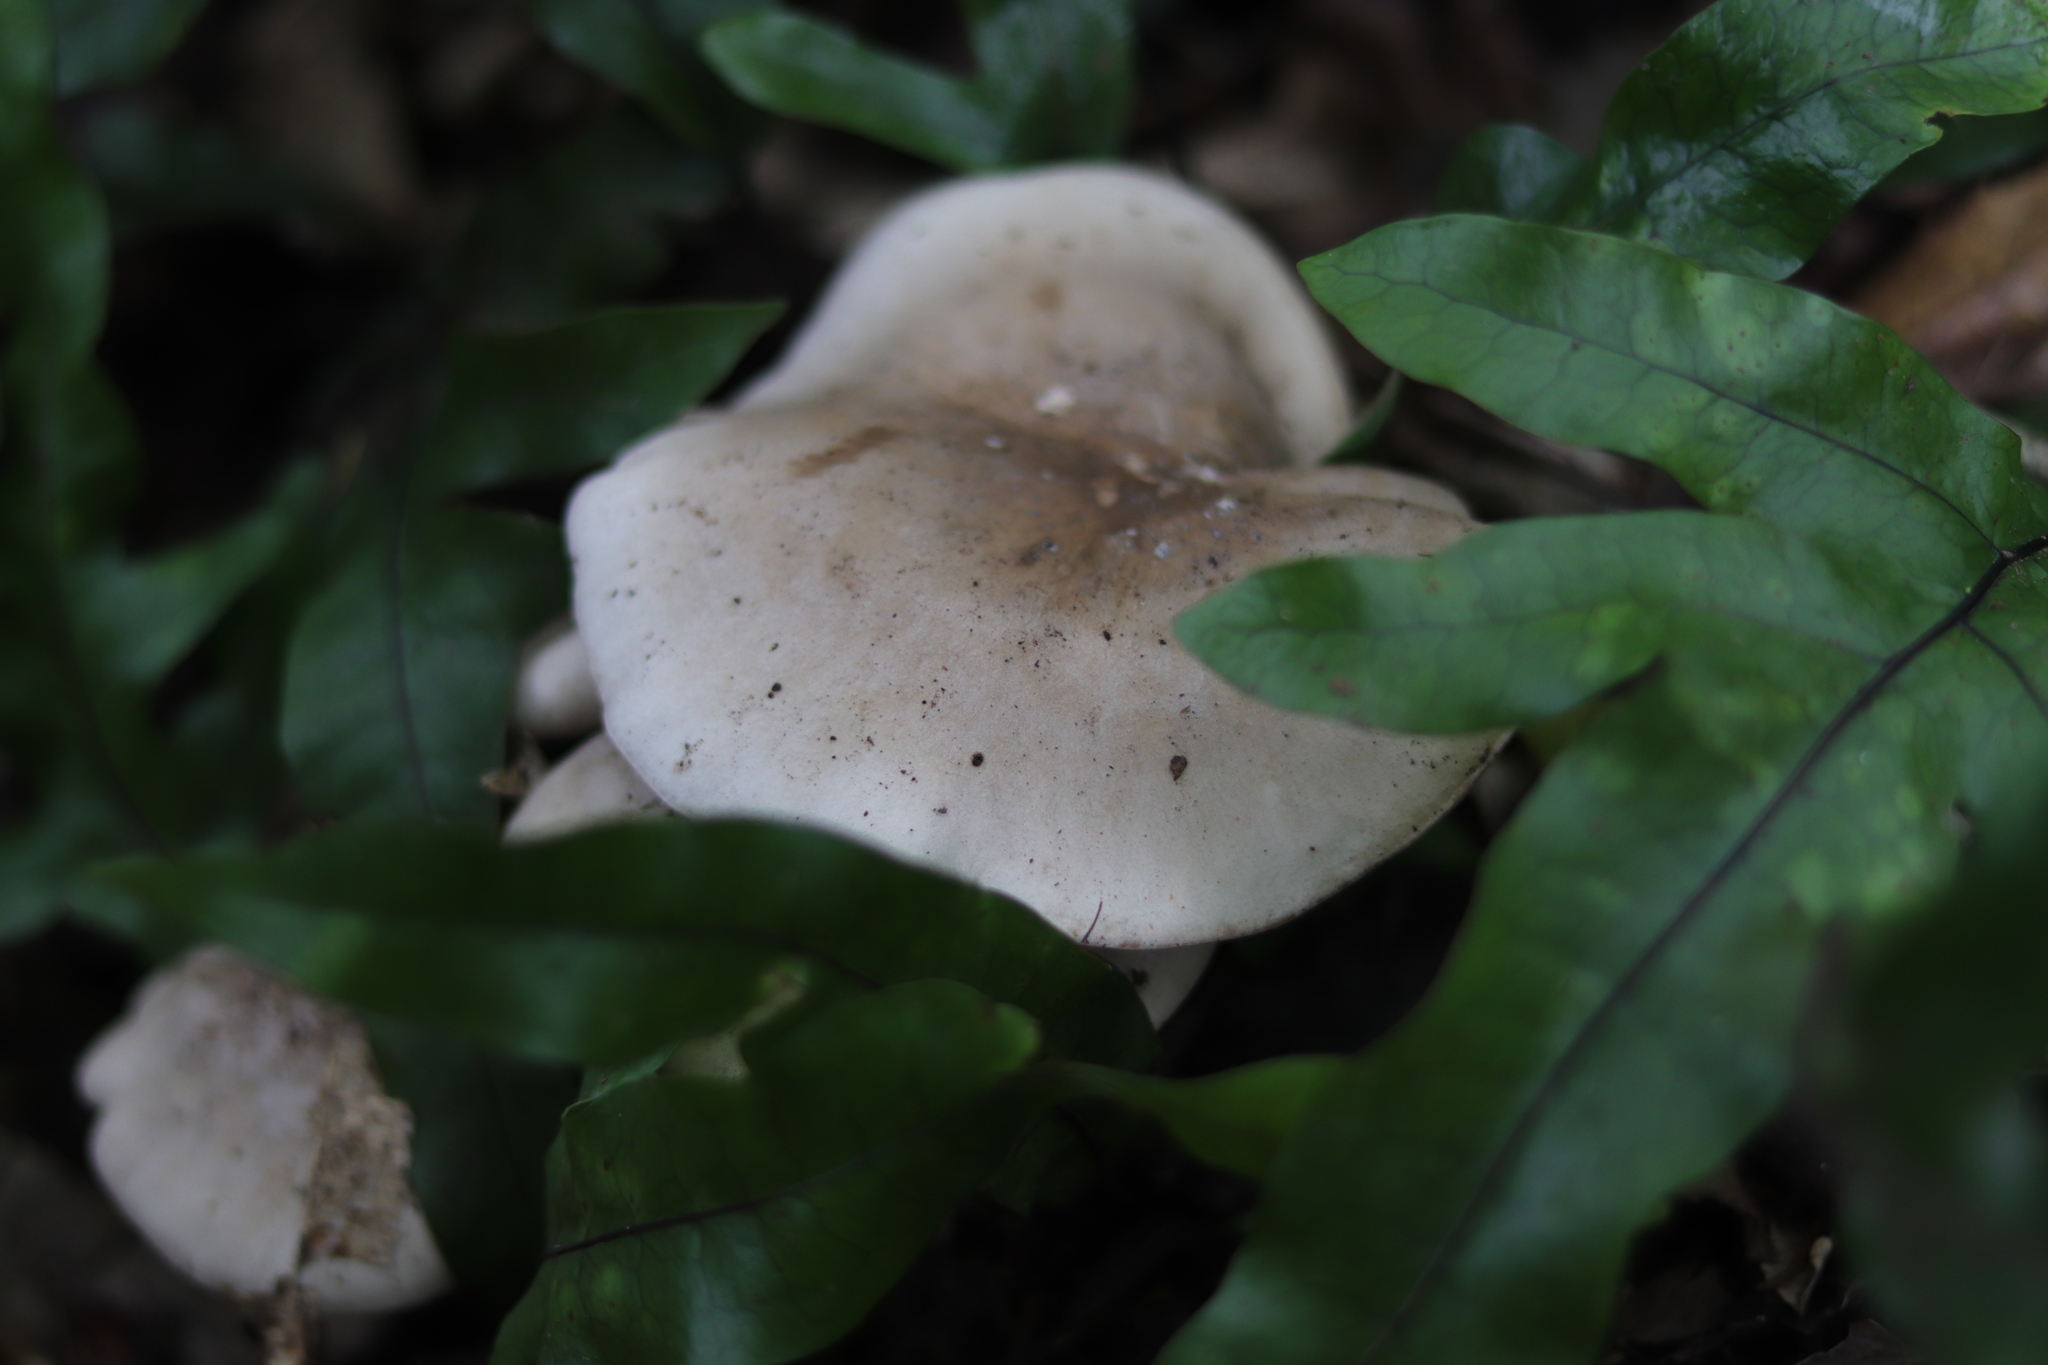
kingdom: Fungi
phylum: Basidiomycota
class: Agaricomycetes
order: Agaricales
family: Tricholomataceae
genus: Lepista
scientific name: Lepista luscina
